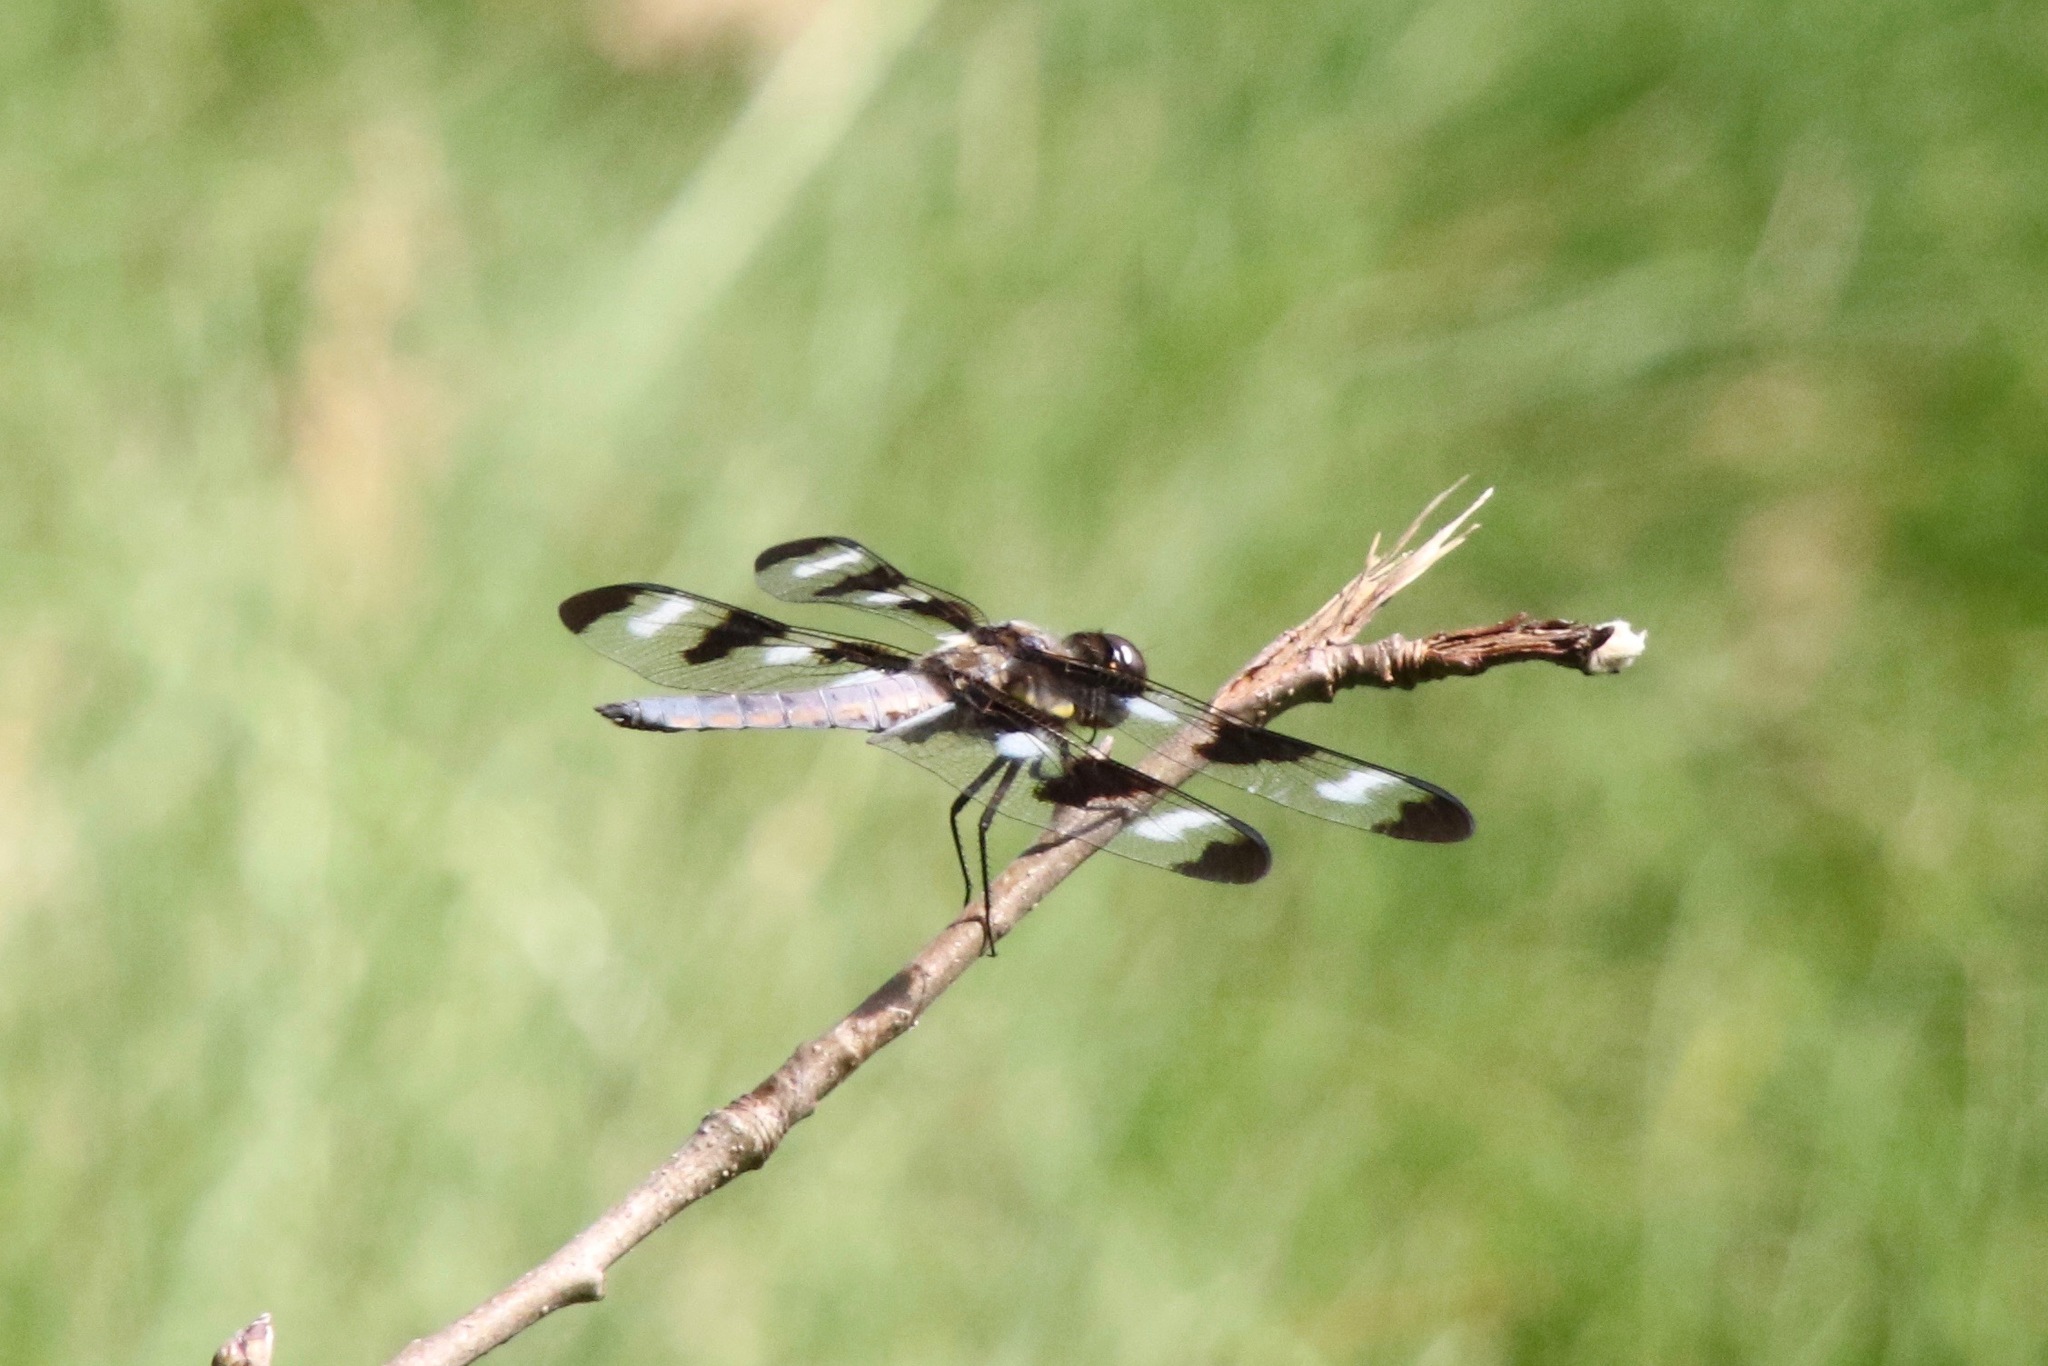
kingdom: Animalia
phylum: Arthropoda
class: Insecta
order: Odonata
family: Libellulidae
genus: Libellula
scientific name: Libellula pulchella
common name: Twelve-spotted skimmer
